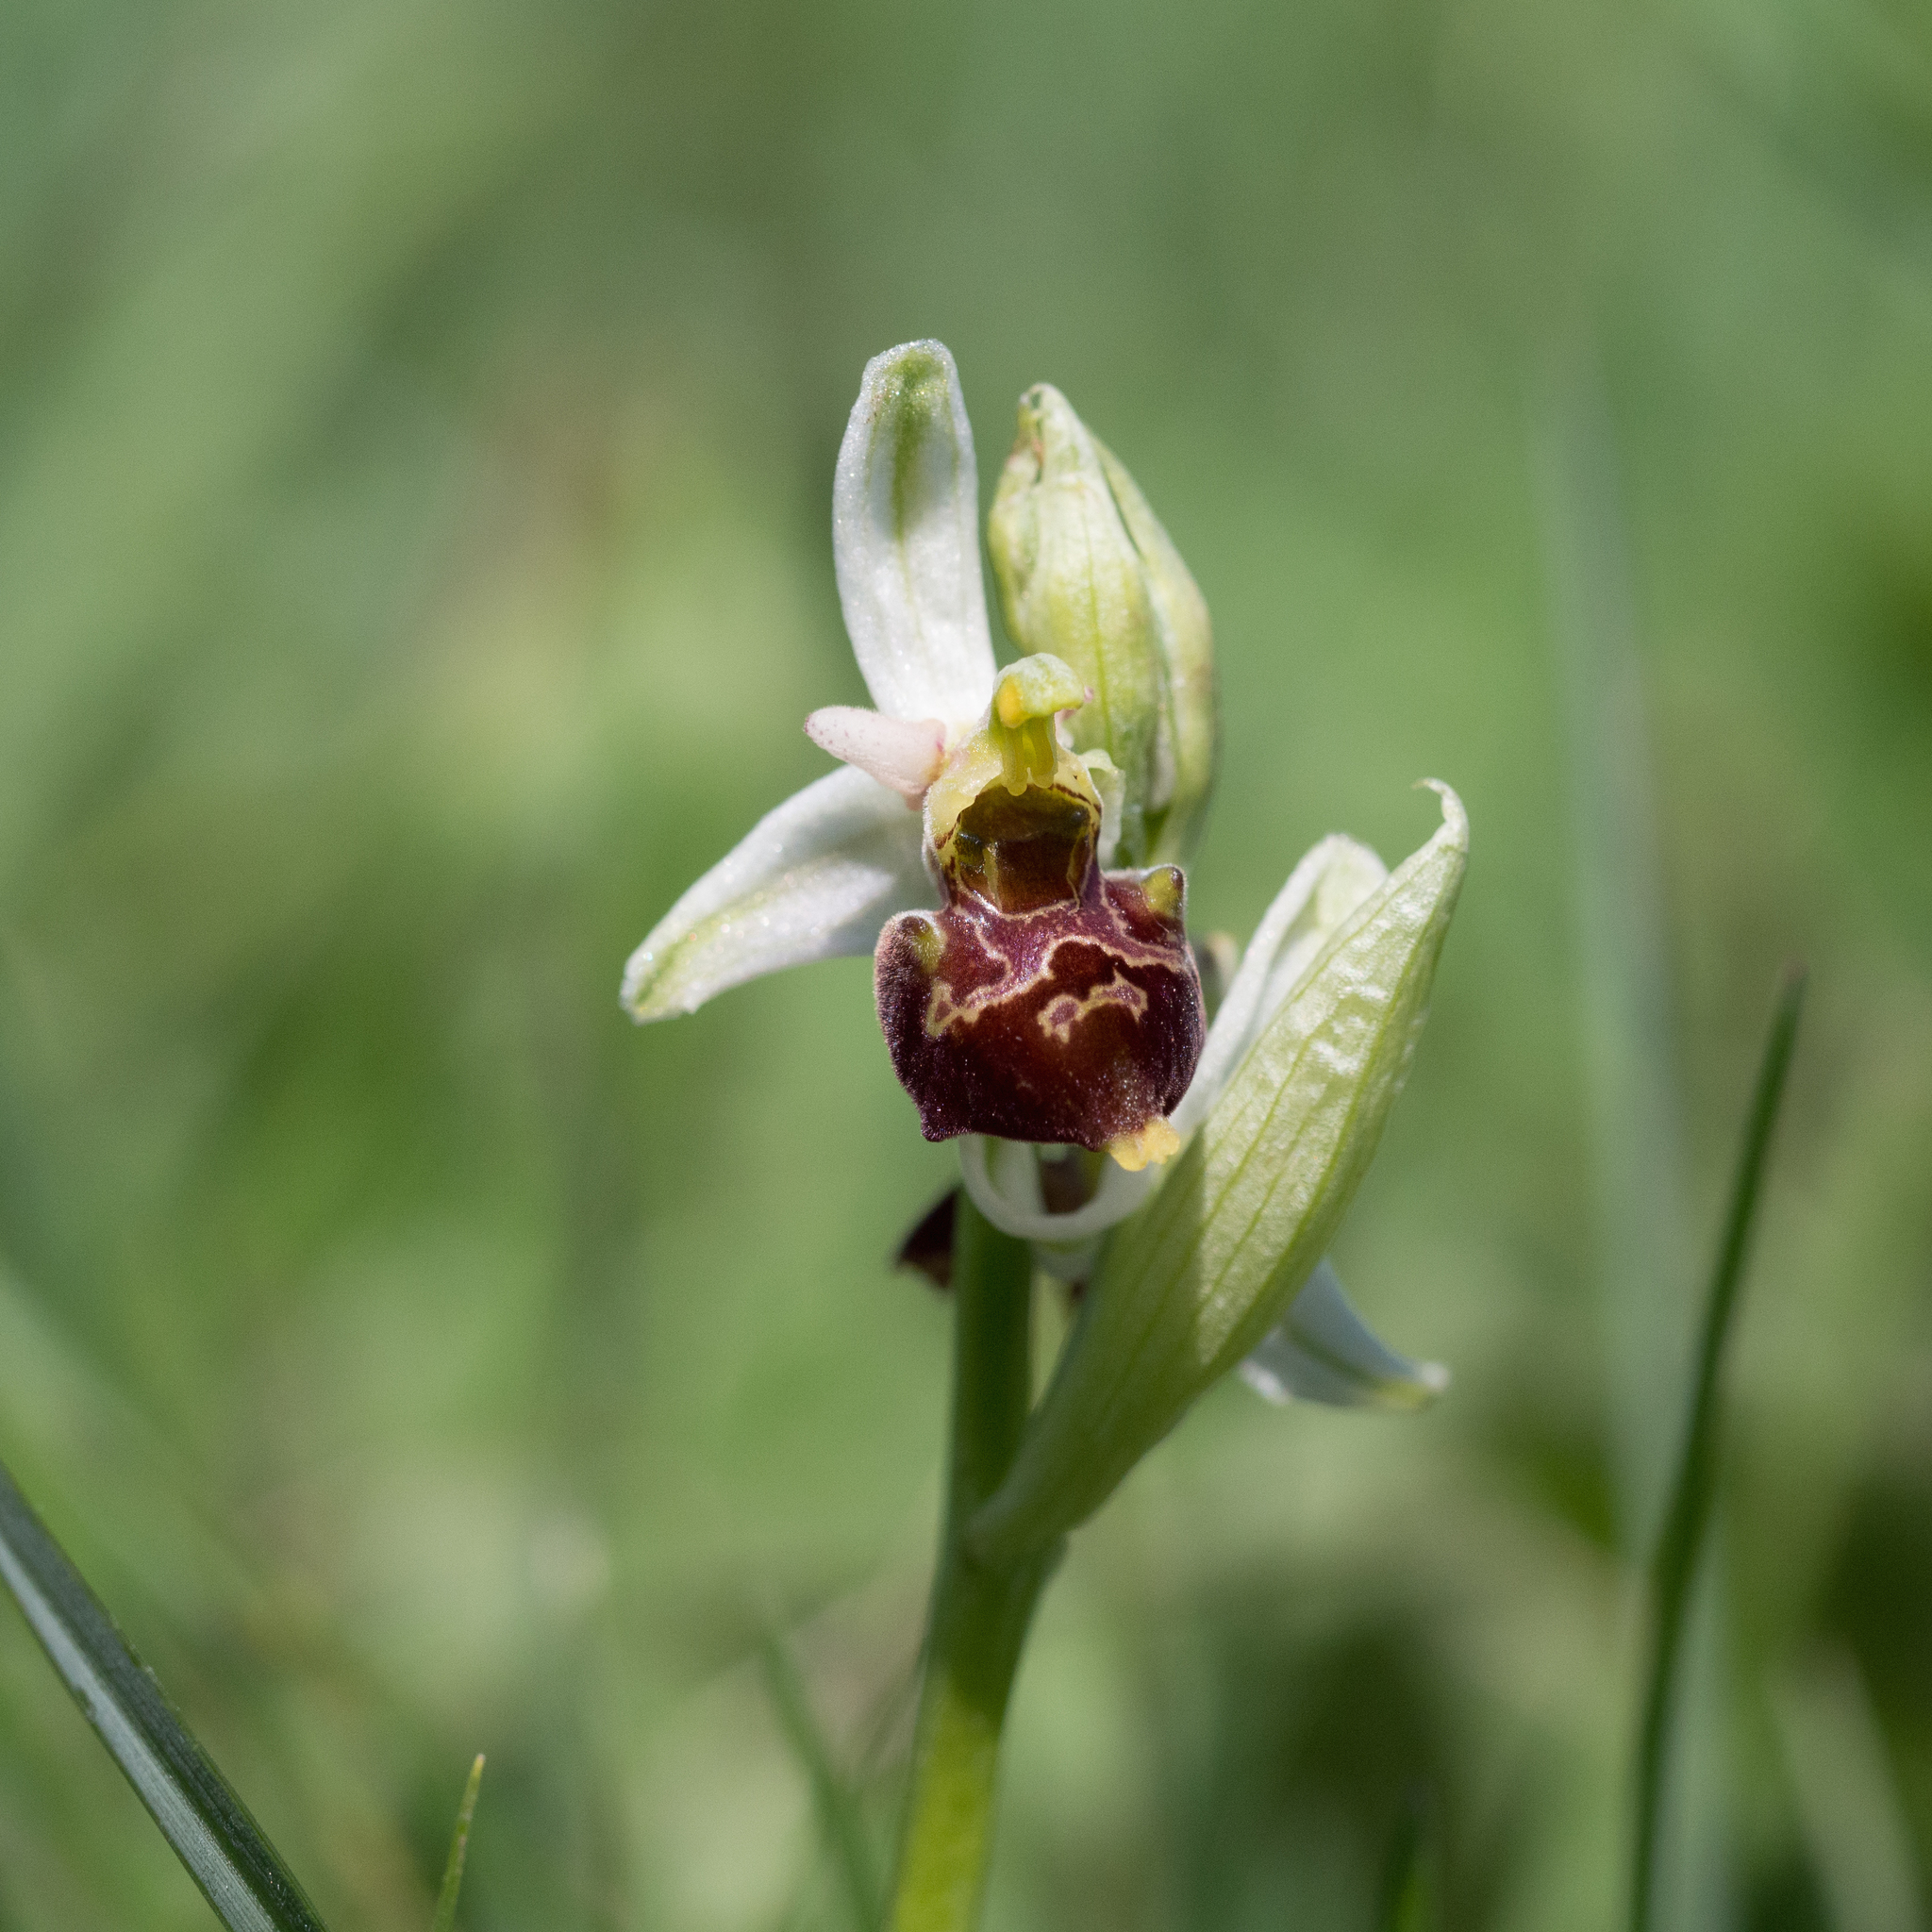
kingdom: Plantae
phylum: Tracheophyta
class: Liliopsida
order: Asparagales
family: Orchidaceae
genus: Ophrys
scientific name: Ophrys holosericea
